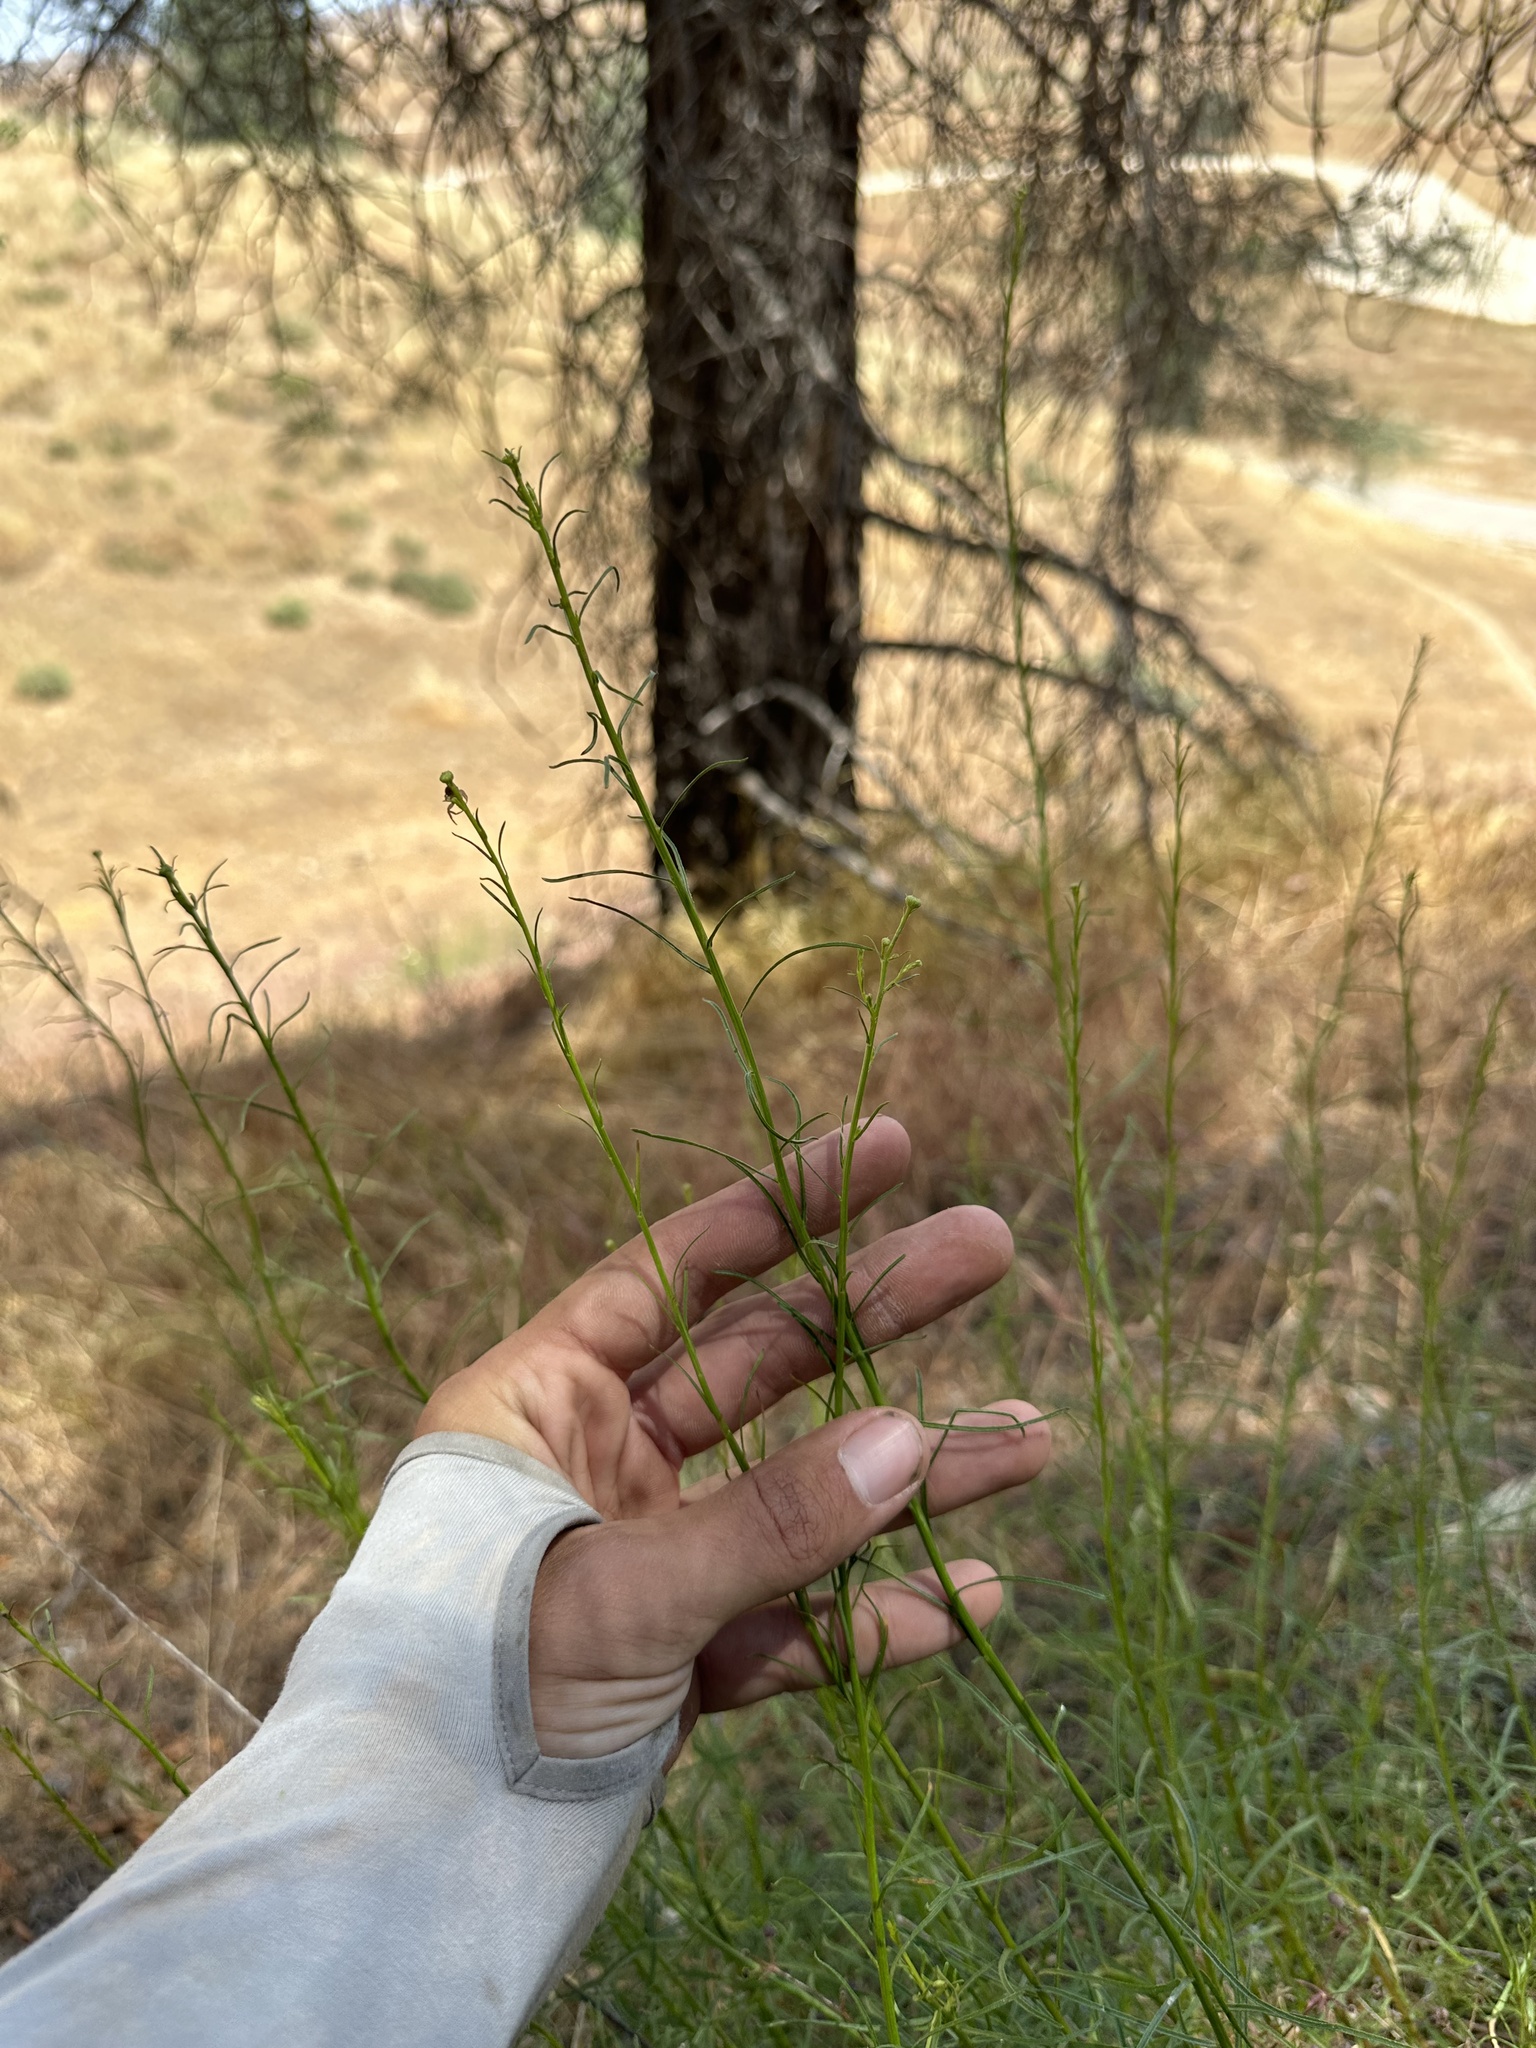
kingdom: Plantae
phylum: Tracheophyta
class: Magnoliopsida
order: Asterales
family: Asteraceae
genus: Erigeron
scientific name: Erigeron foliosus
